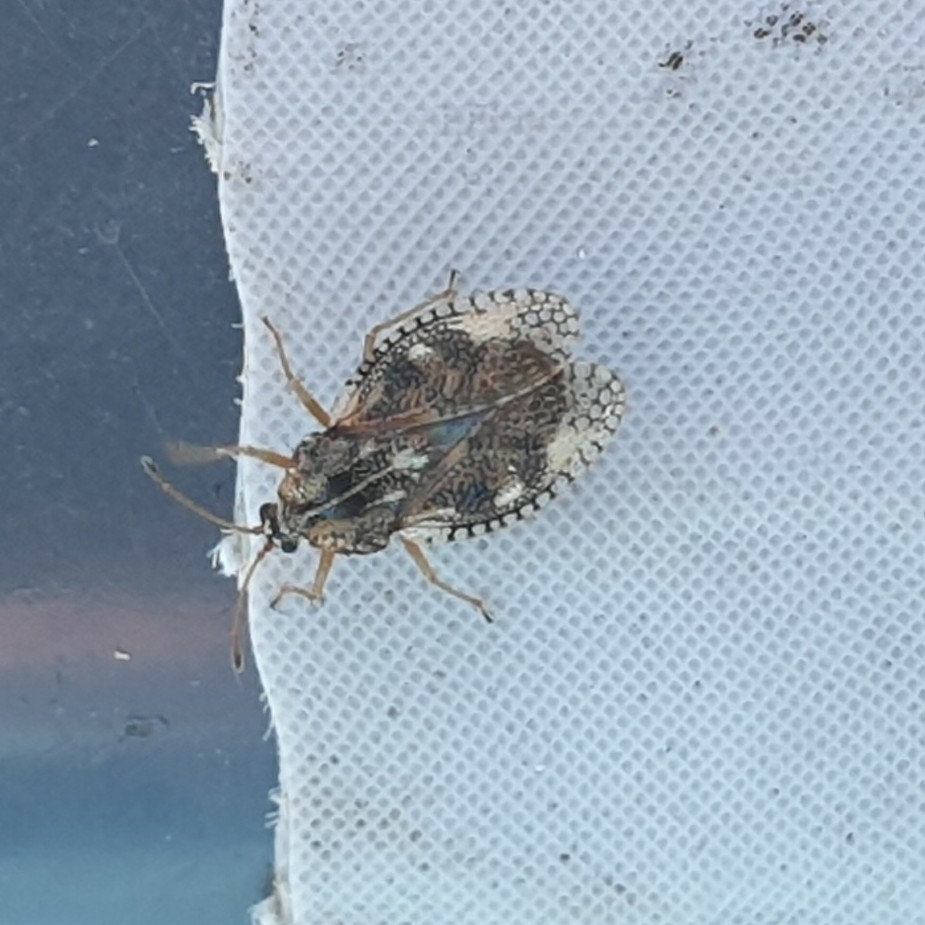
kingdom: Animalia
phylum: Arthropoda
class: Insecta
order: Hemiptera
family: Tingidae
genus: Dictyla
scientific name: Dictyla humuli
